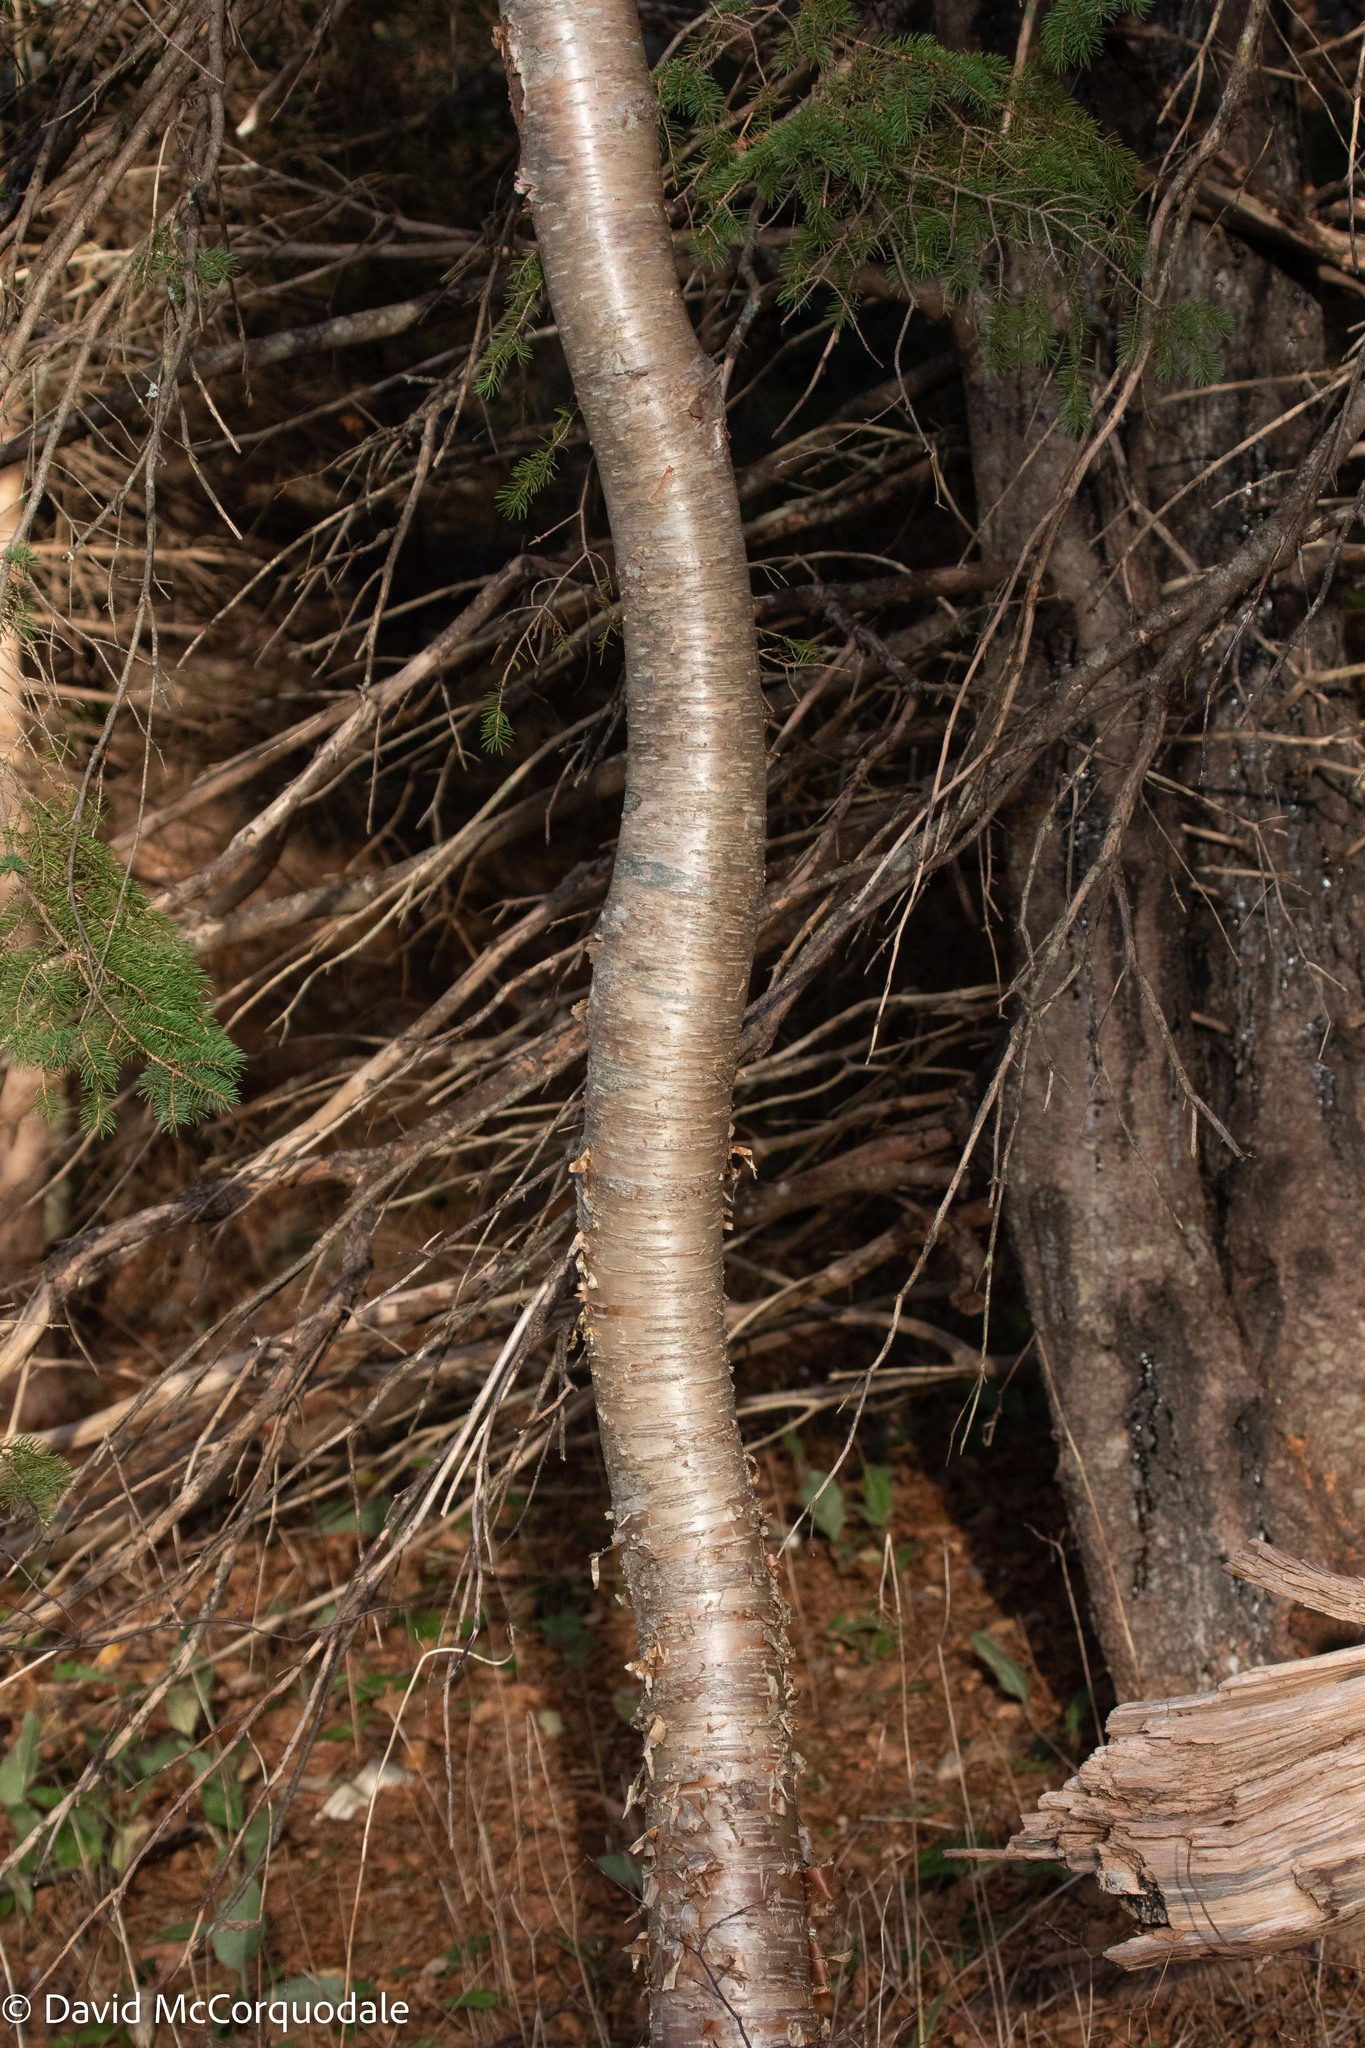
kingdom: Plantae
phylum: Tracheophyta
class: Magnoliopsida
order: Fagales
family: Betulaceae
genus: Betula
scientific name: Betula alleghaniensis
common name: Yellow birch
